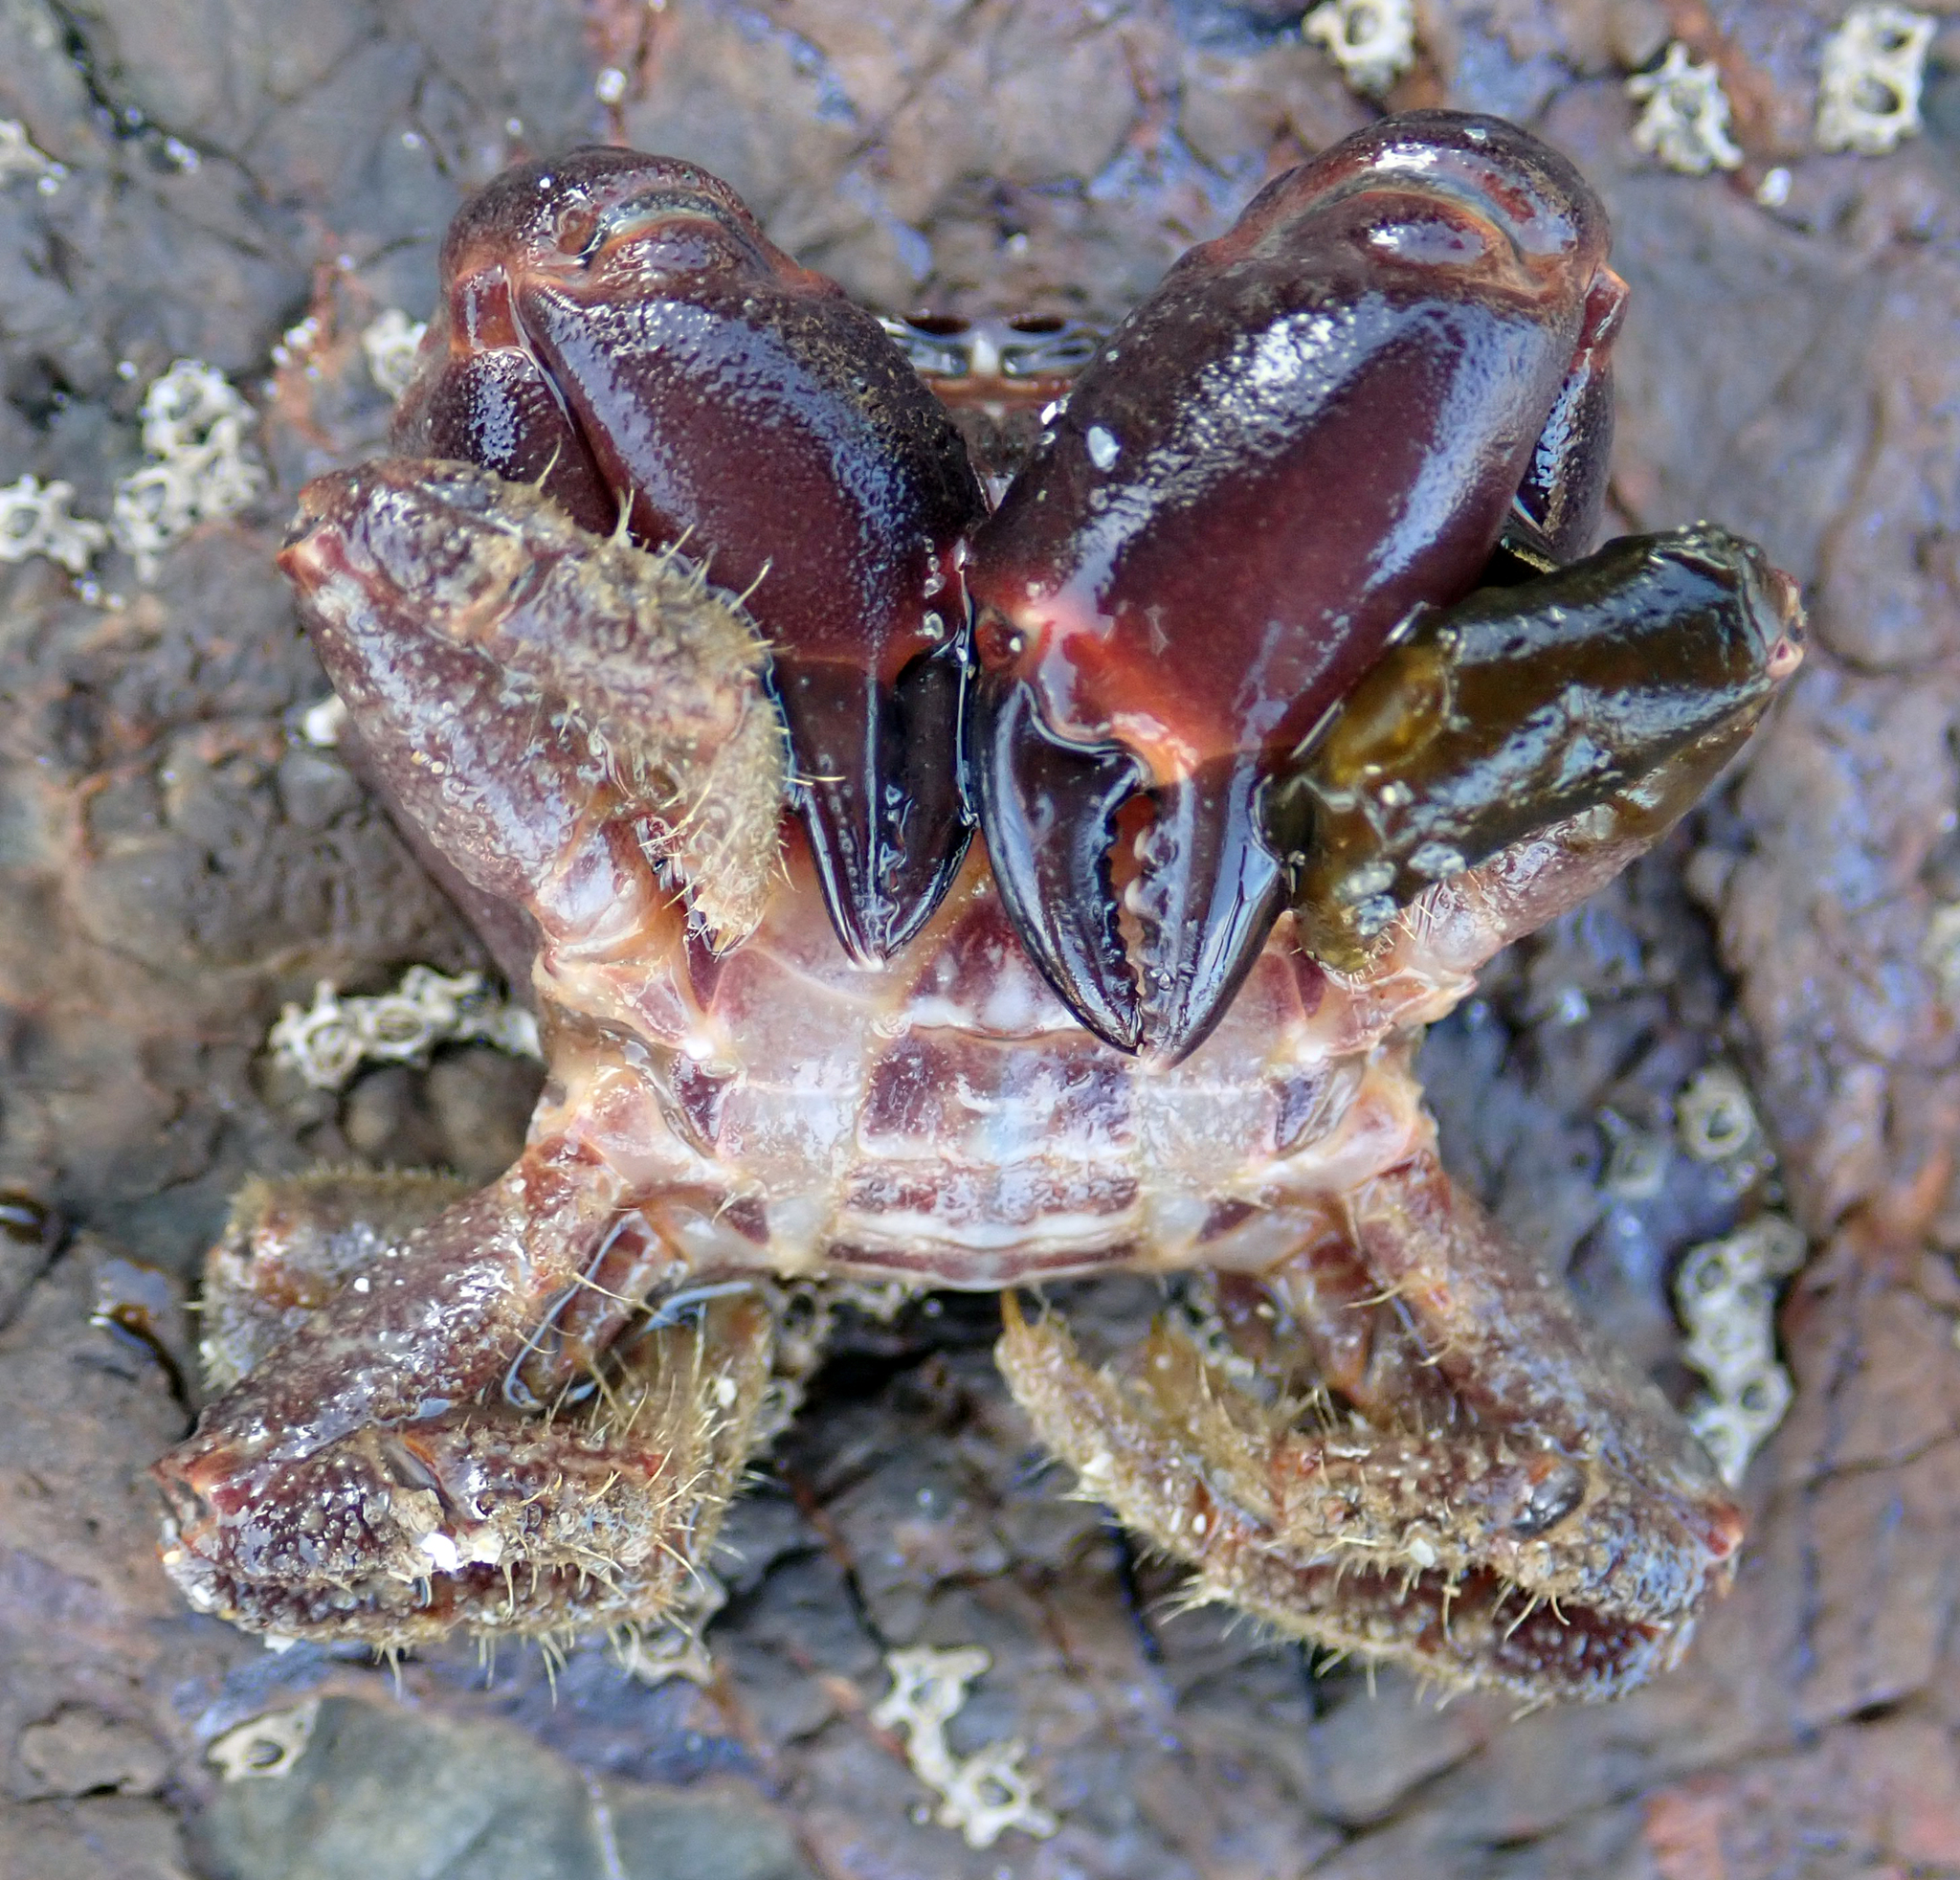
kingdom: Animalia
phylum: Arthropoda
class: Malacostraca
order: Decapoda
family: Oziidae
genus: Ozius
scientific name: Ozius deplanatus
